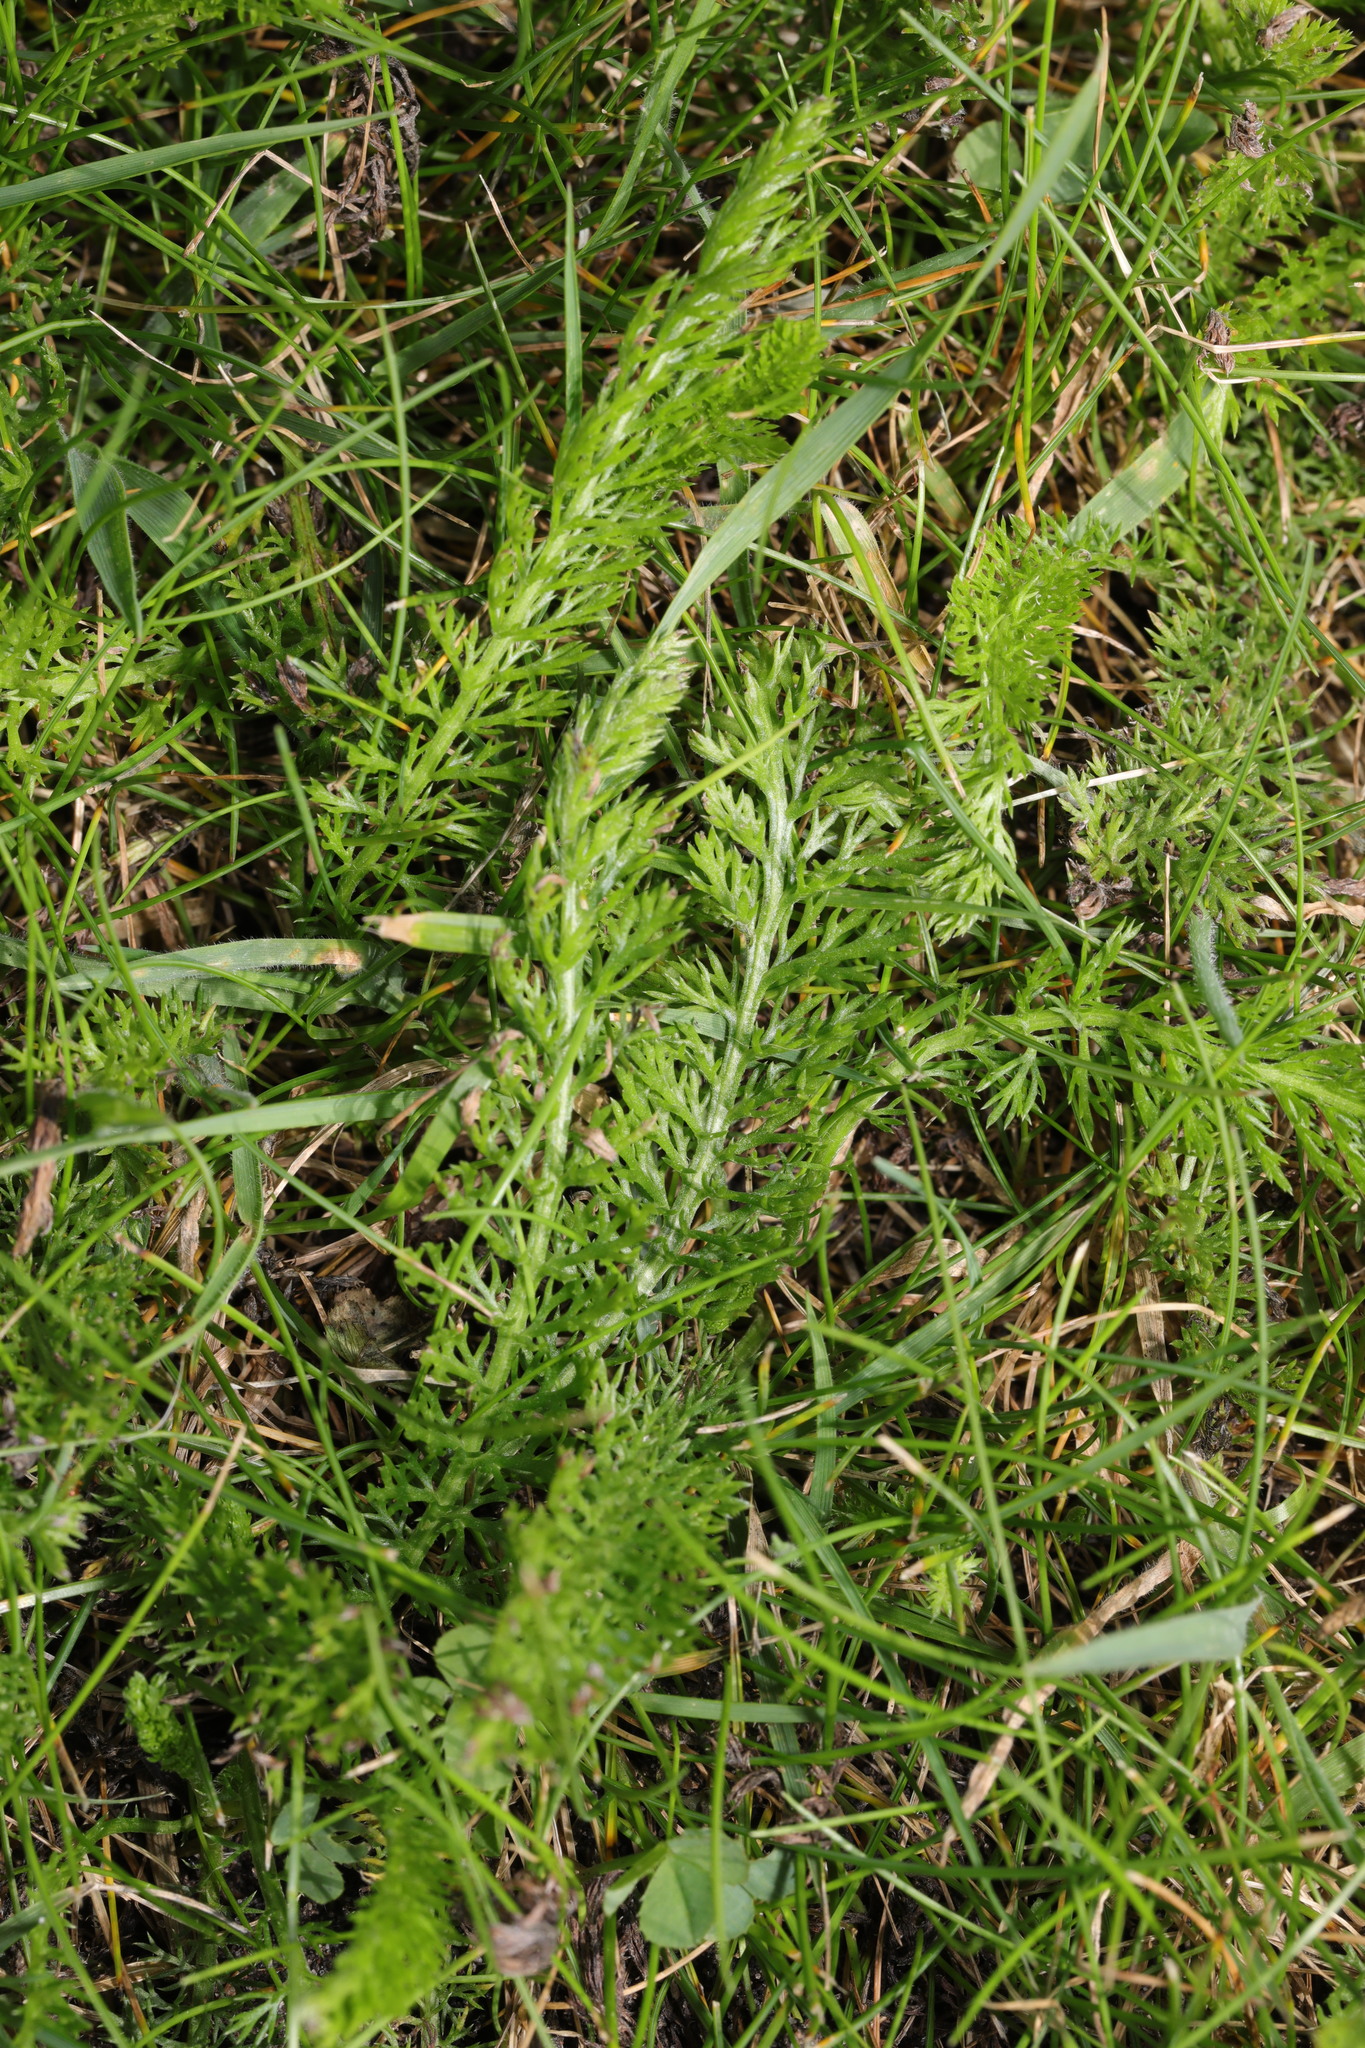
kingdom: Plantae
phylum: Tracheophyta
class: Magnoliopsida
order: Asterales
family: Asteraceae
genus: Achillea
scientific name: Achillea millefolium
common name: Yarrow
